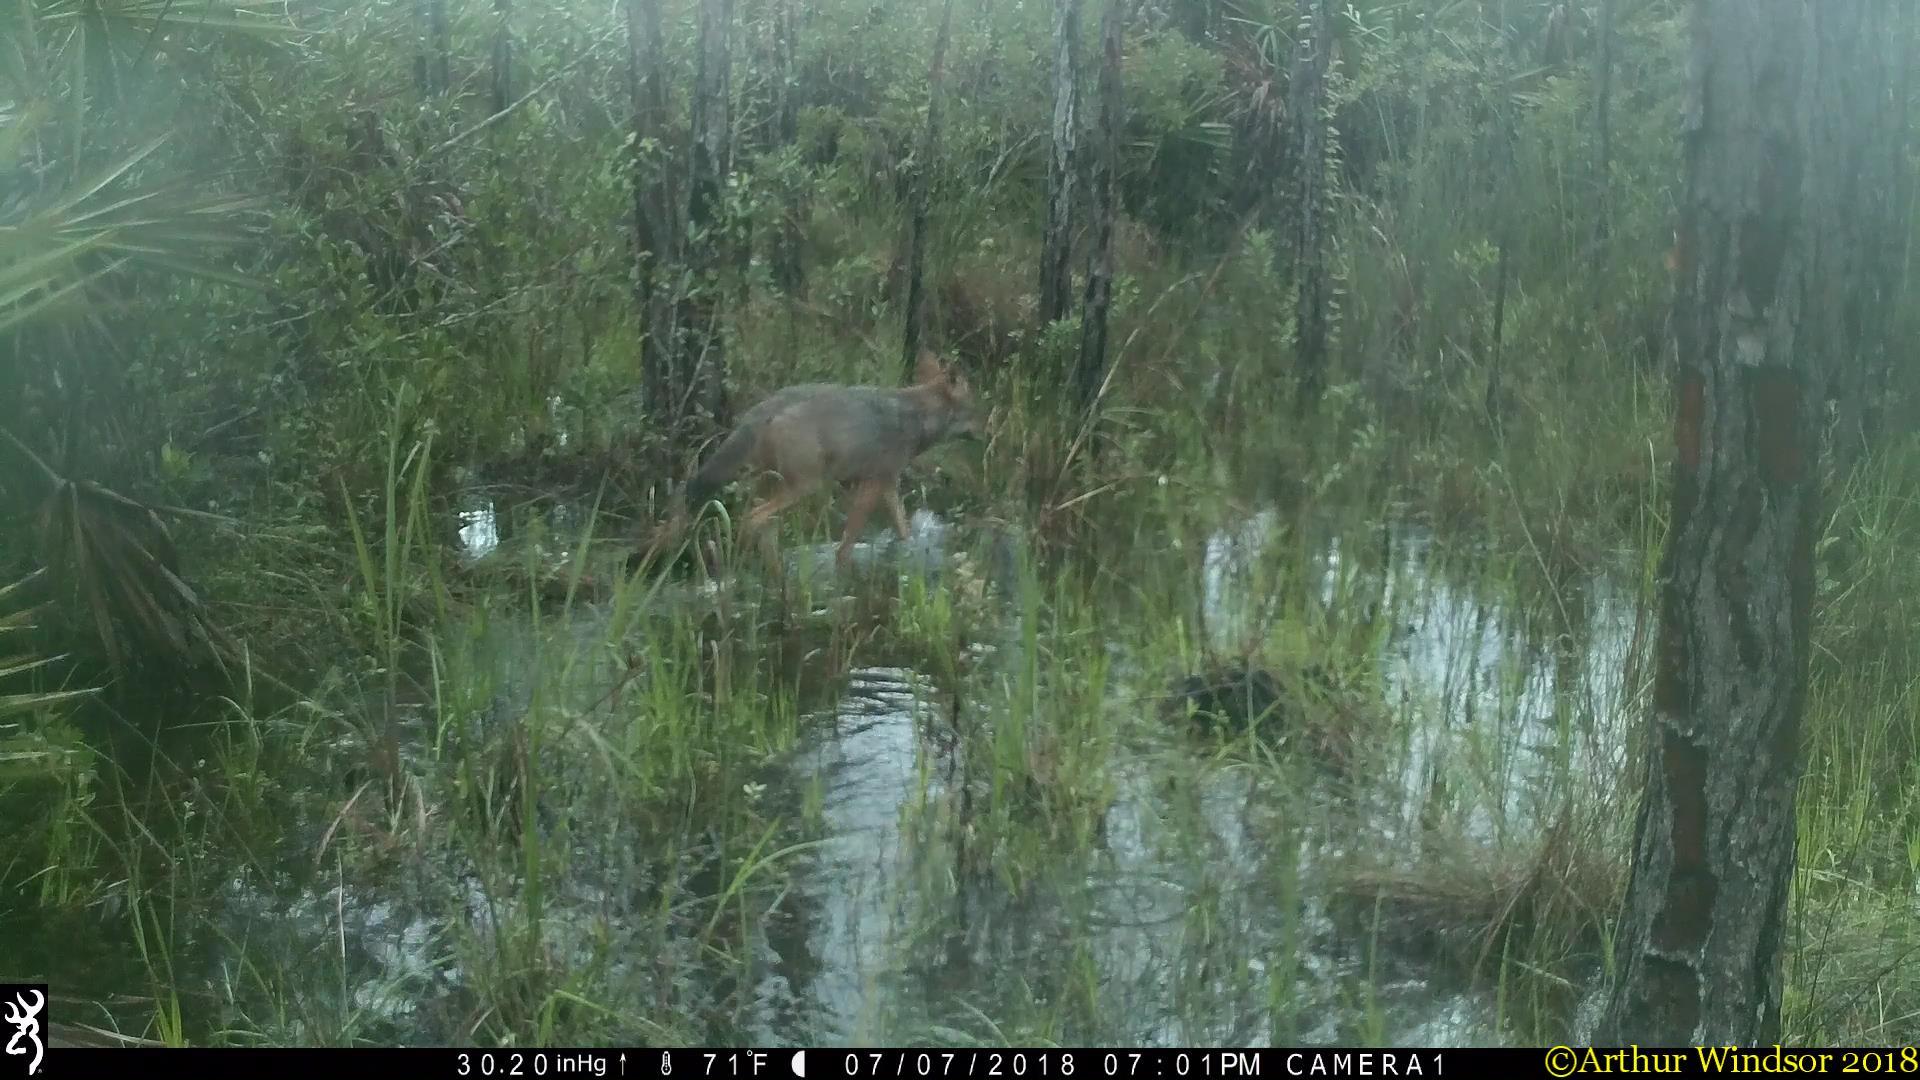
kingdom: Animalia
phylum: Chordata
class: Mammalia
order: Carnivora
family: Canidae
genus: Canis
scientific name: Canis latrans
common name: Coyote
